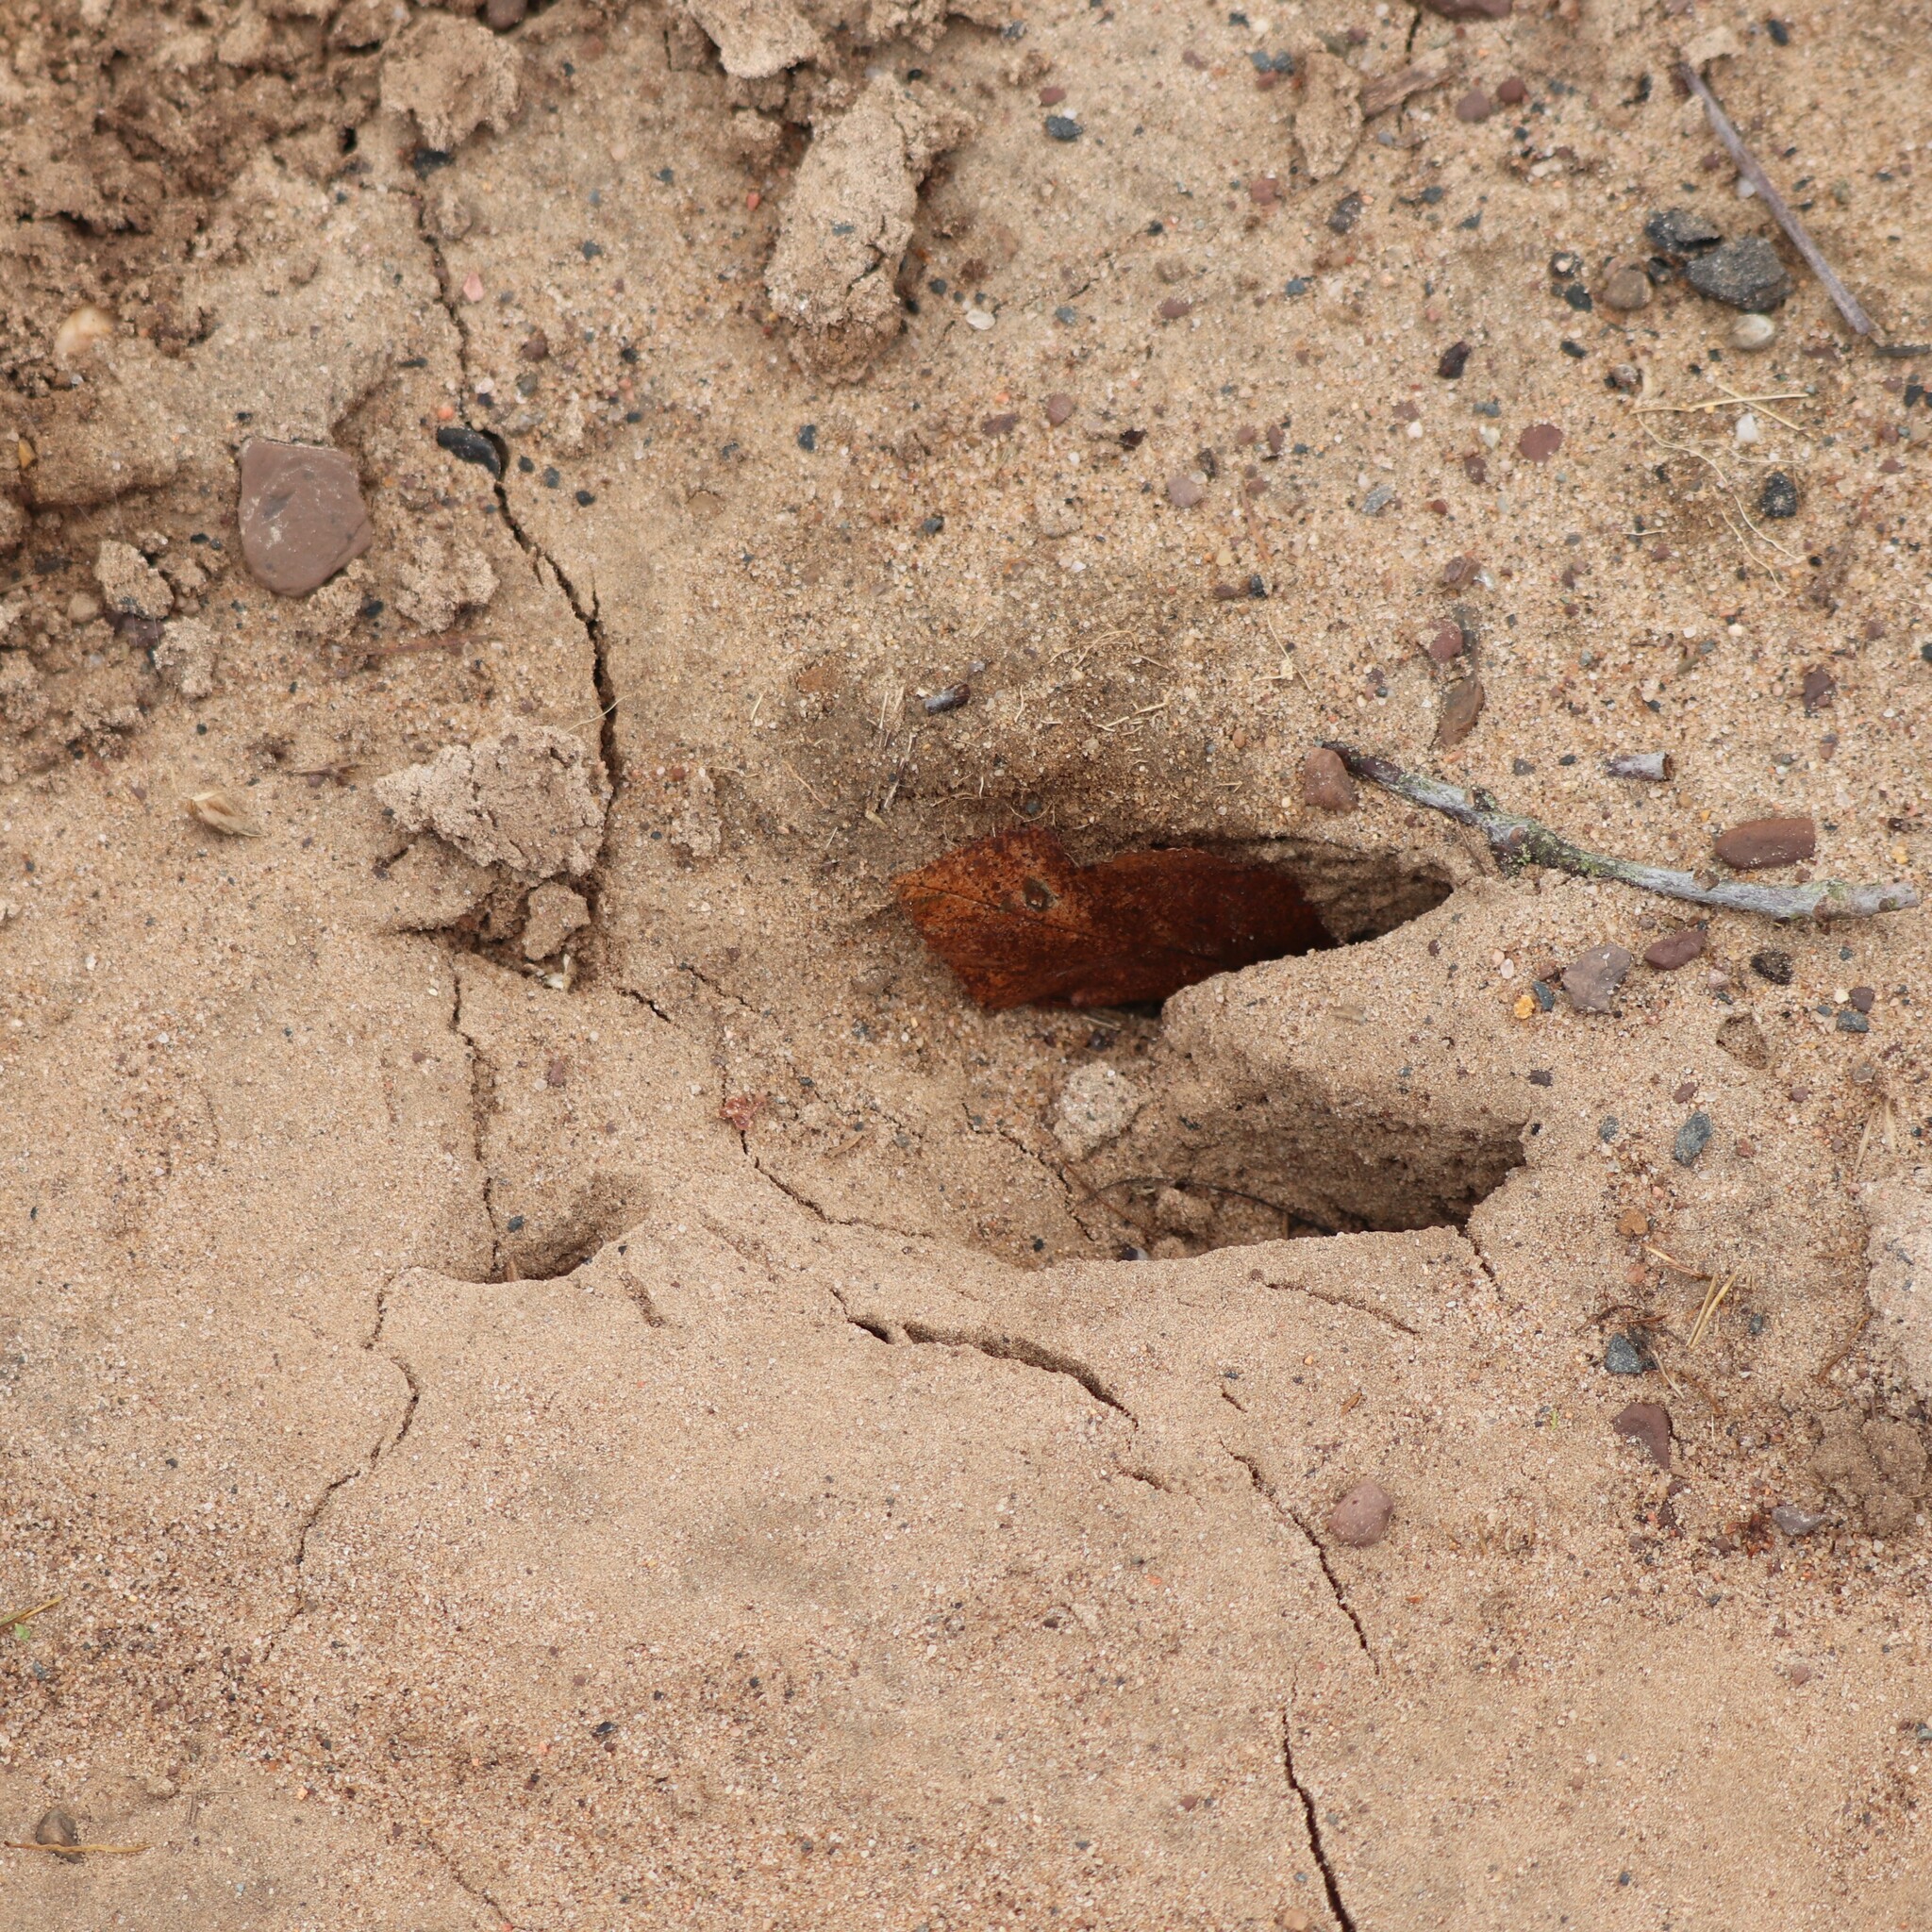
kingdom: Animalia
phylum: Chordata
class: Mammalia
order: Artiodactyla
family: Cervidae
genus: Odocoileus
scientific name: Odocoileus virginianus
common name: White-tailed deer
